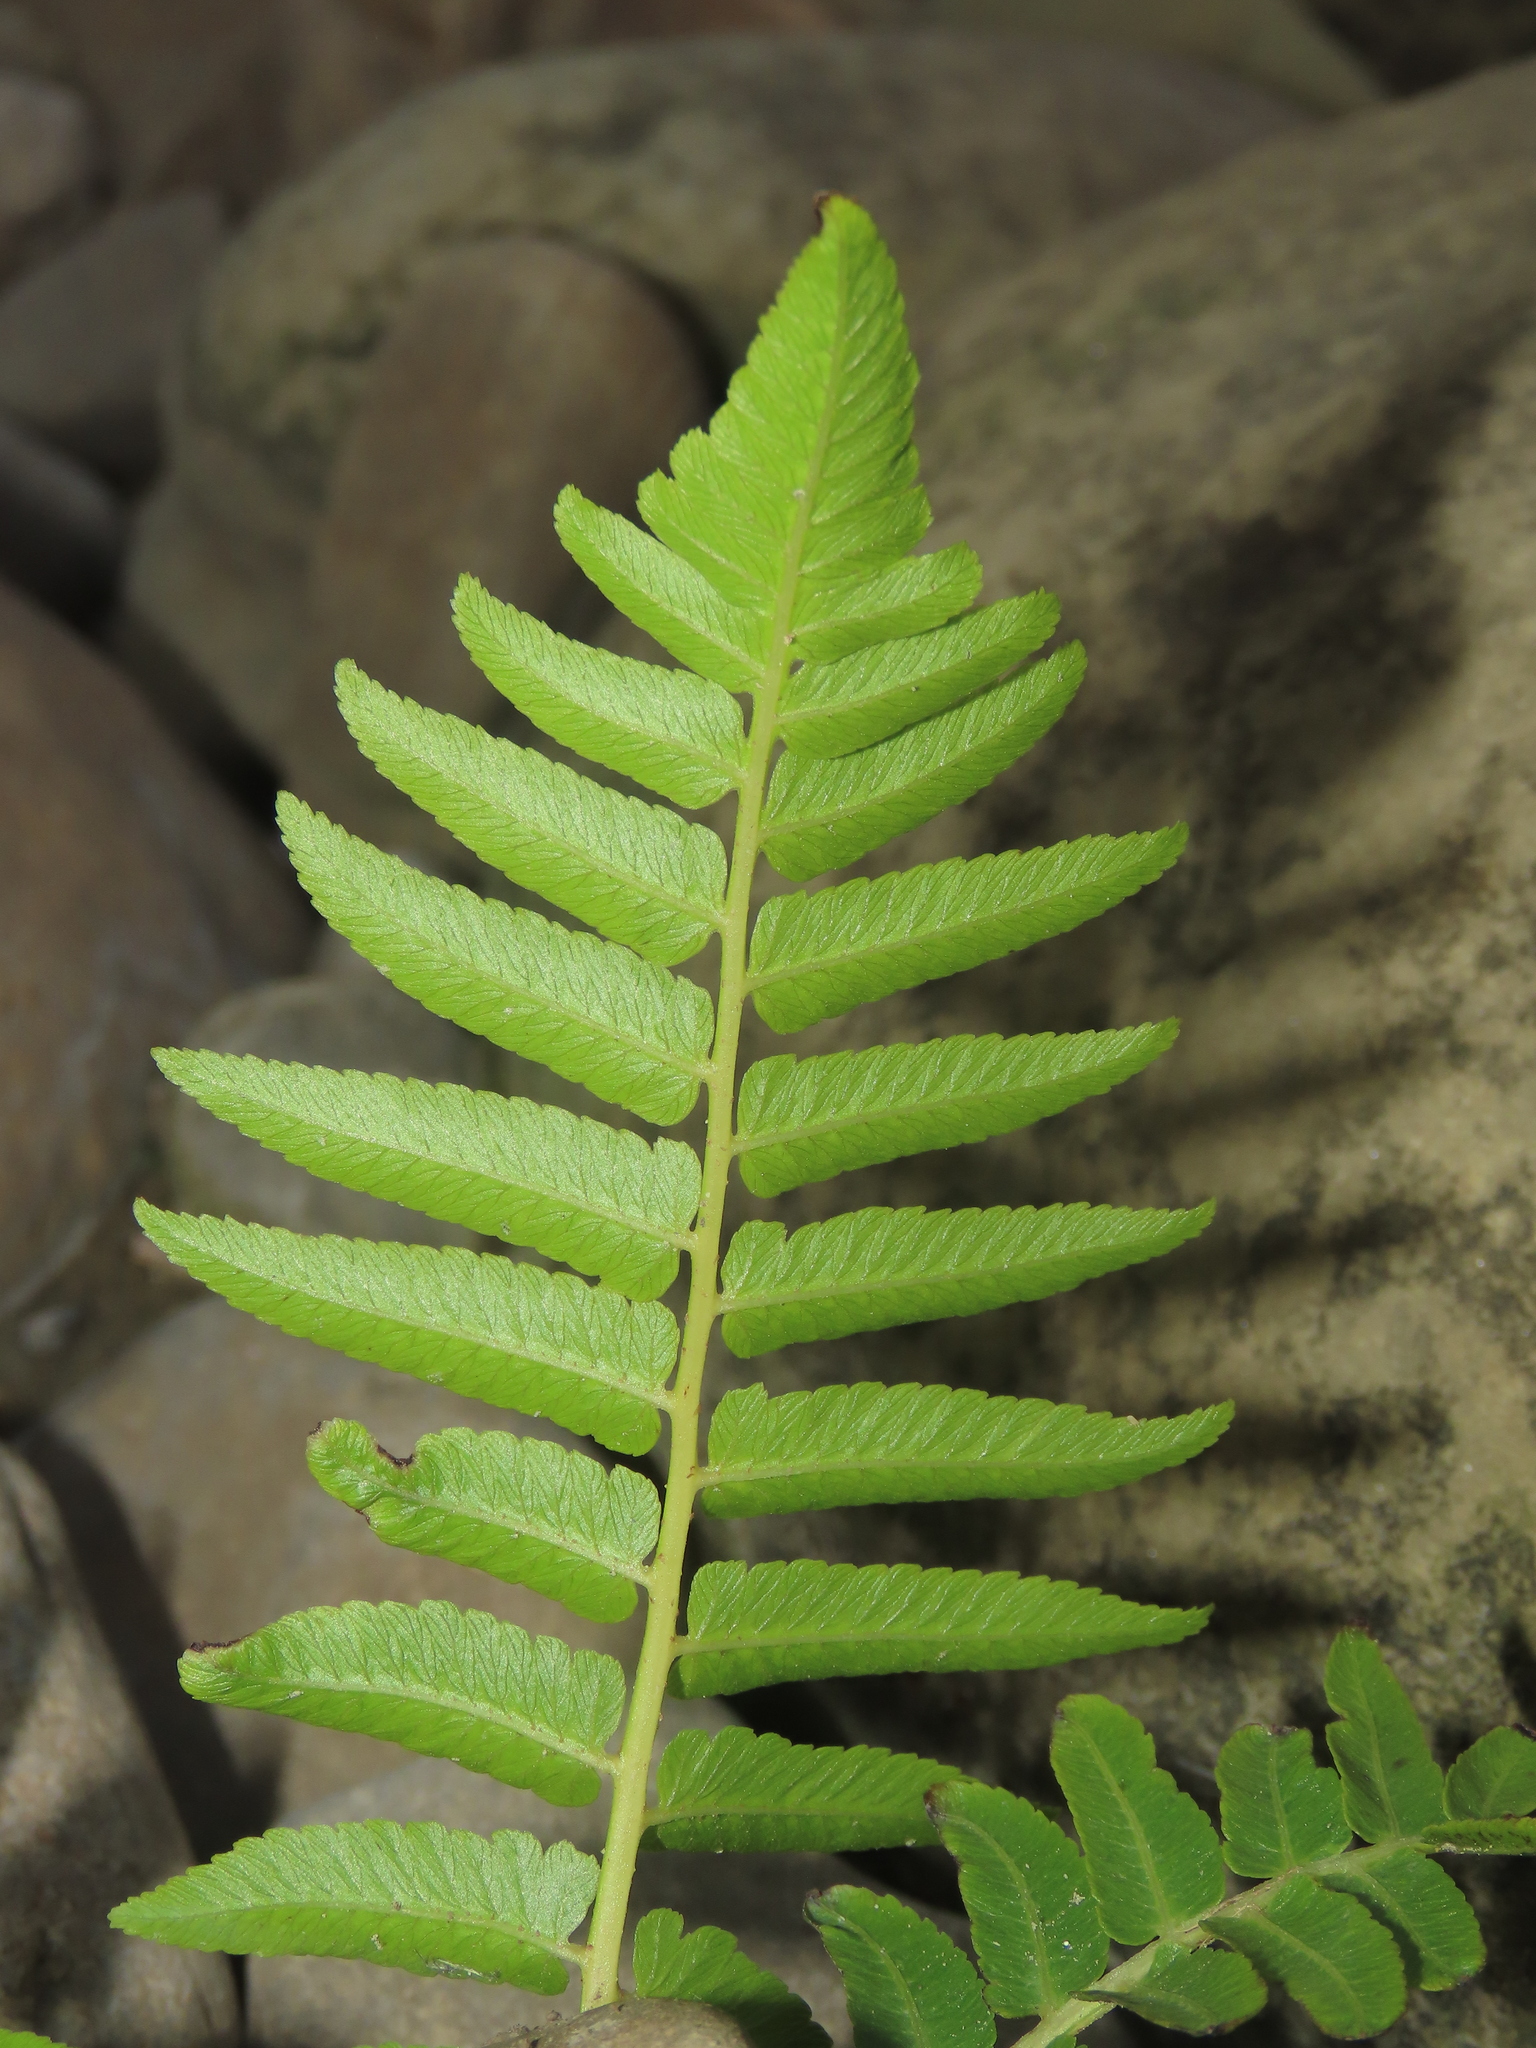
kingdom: Plantae
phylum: Tracheophyta
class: Polypodiopsida
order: Polypodiales
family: Athyriaceae
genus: Diplazium
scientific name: Diplazium esculentum
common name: Vegetable fern
